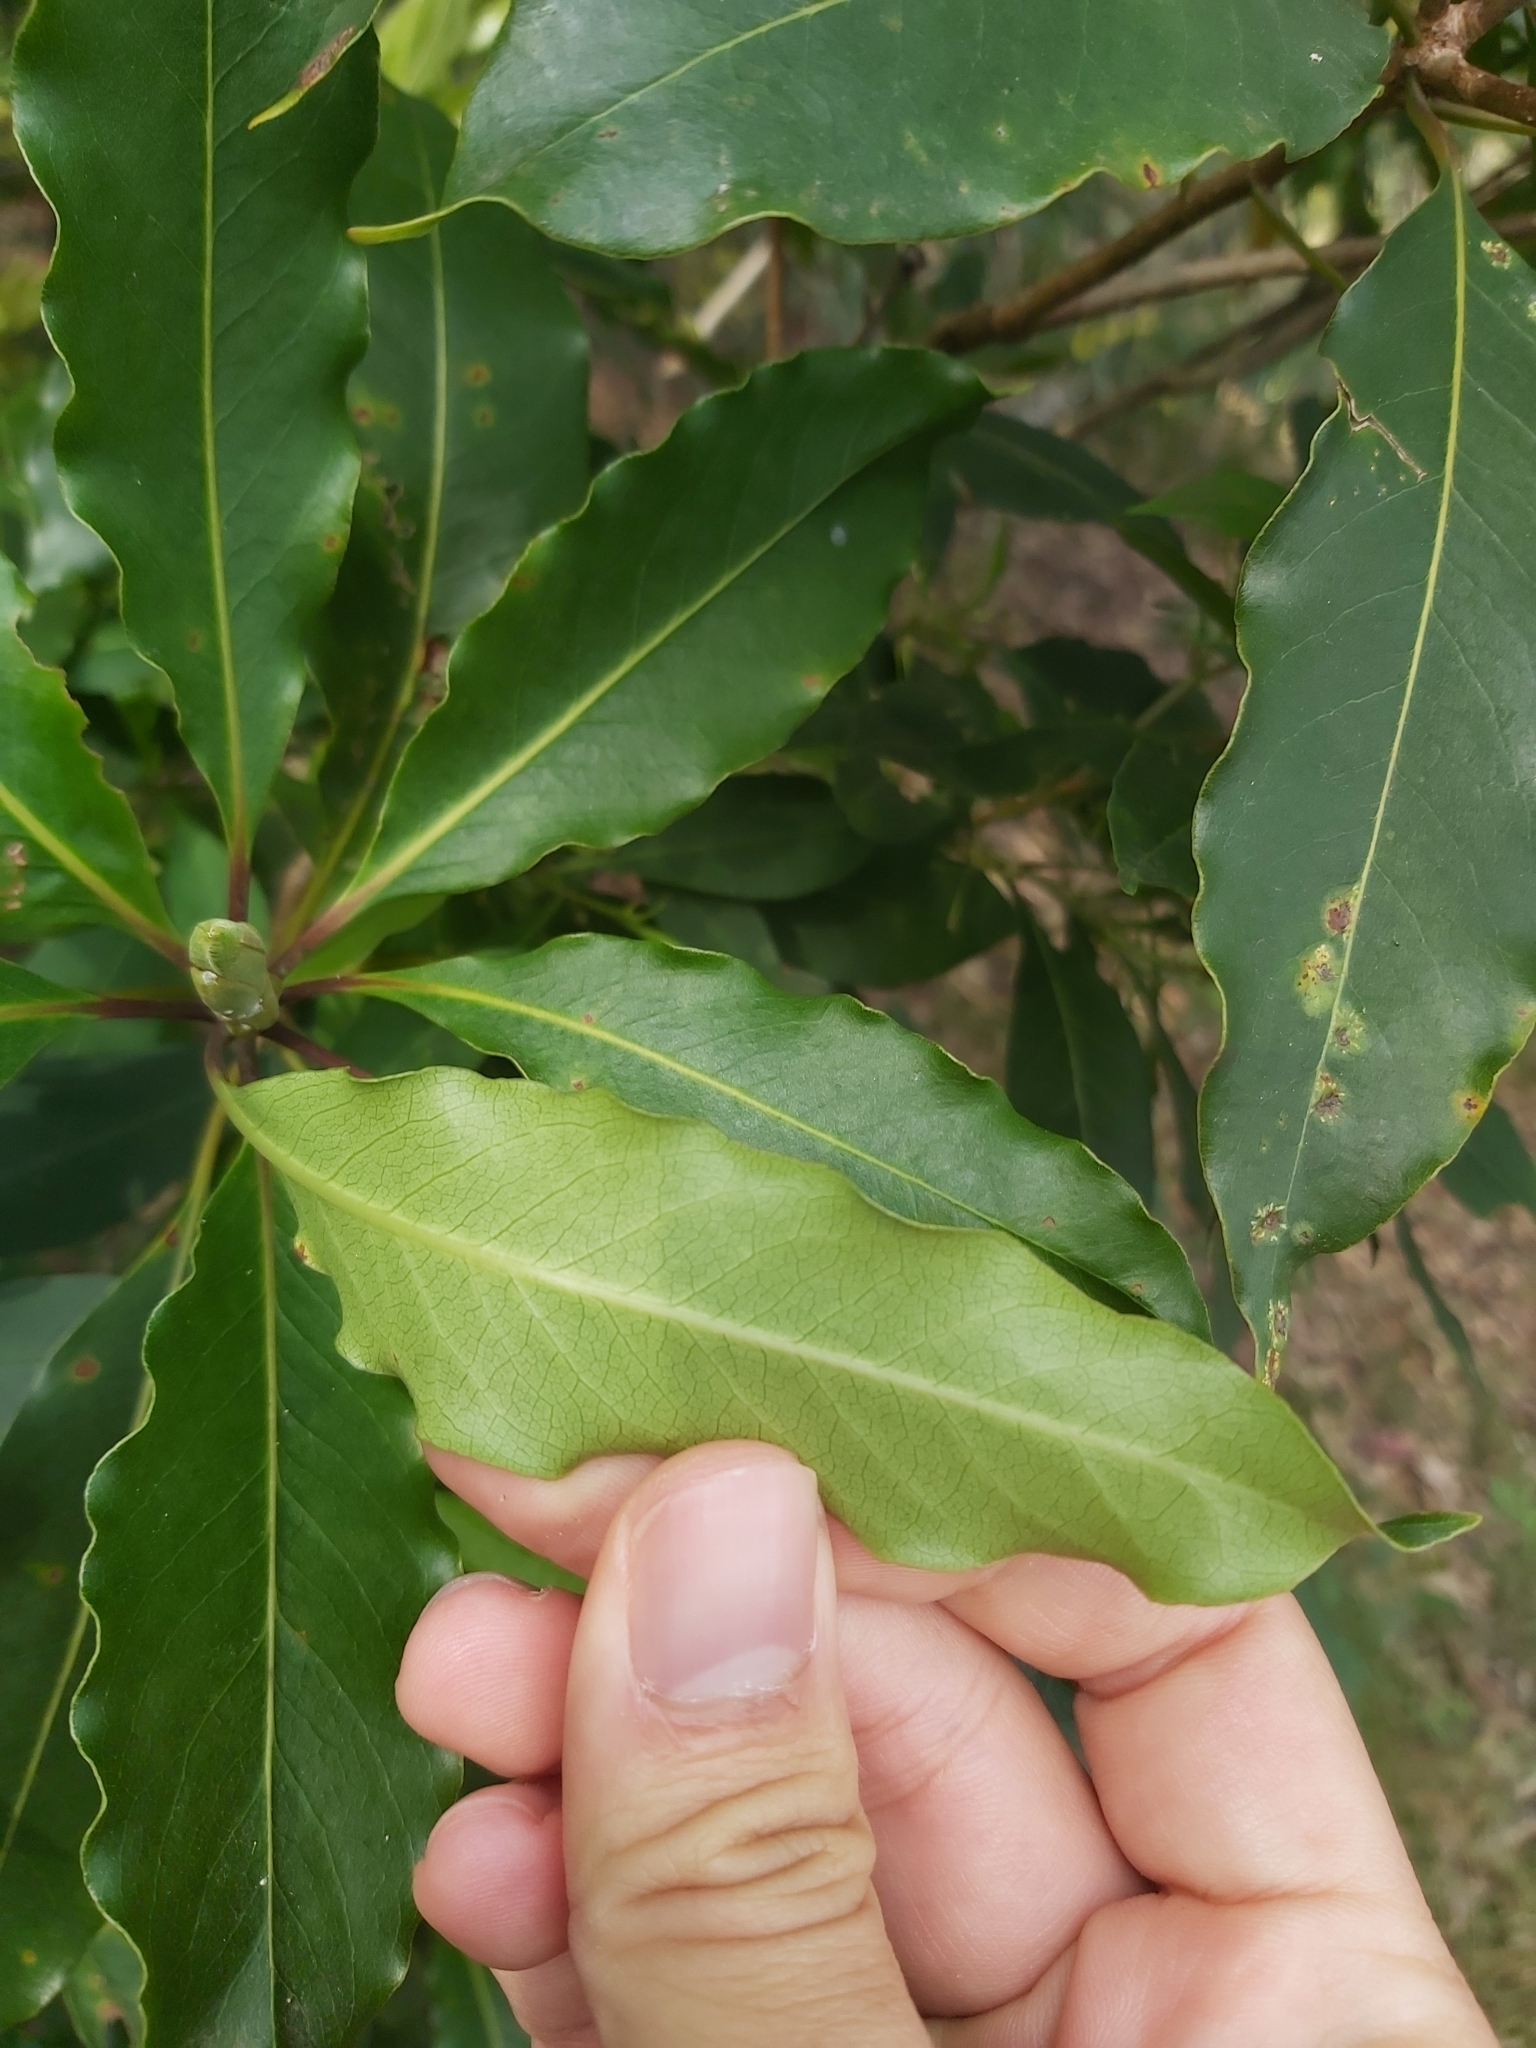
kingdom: Plantae
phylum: Tracheophyta
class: Magnoliopsida
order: Apiales
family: Pittosporaceae
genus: Pittosporum
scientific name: Pittosporum undulatum
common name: Australian cheesewood
